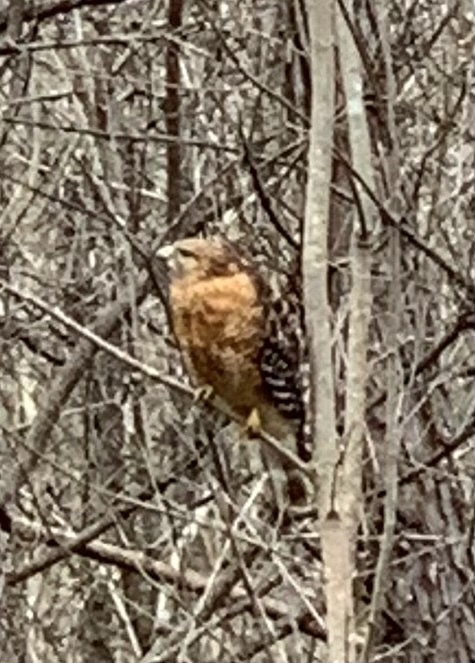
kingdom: Animalia
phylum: Chordata
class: Aves
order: Accipitriformes
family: Accipitridae
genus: Buteo
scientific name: Buteo lineatus
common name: Red-shouldered hawk
